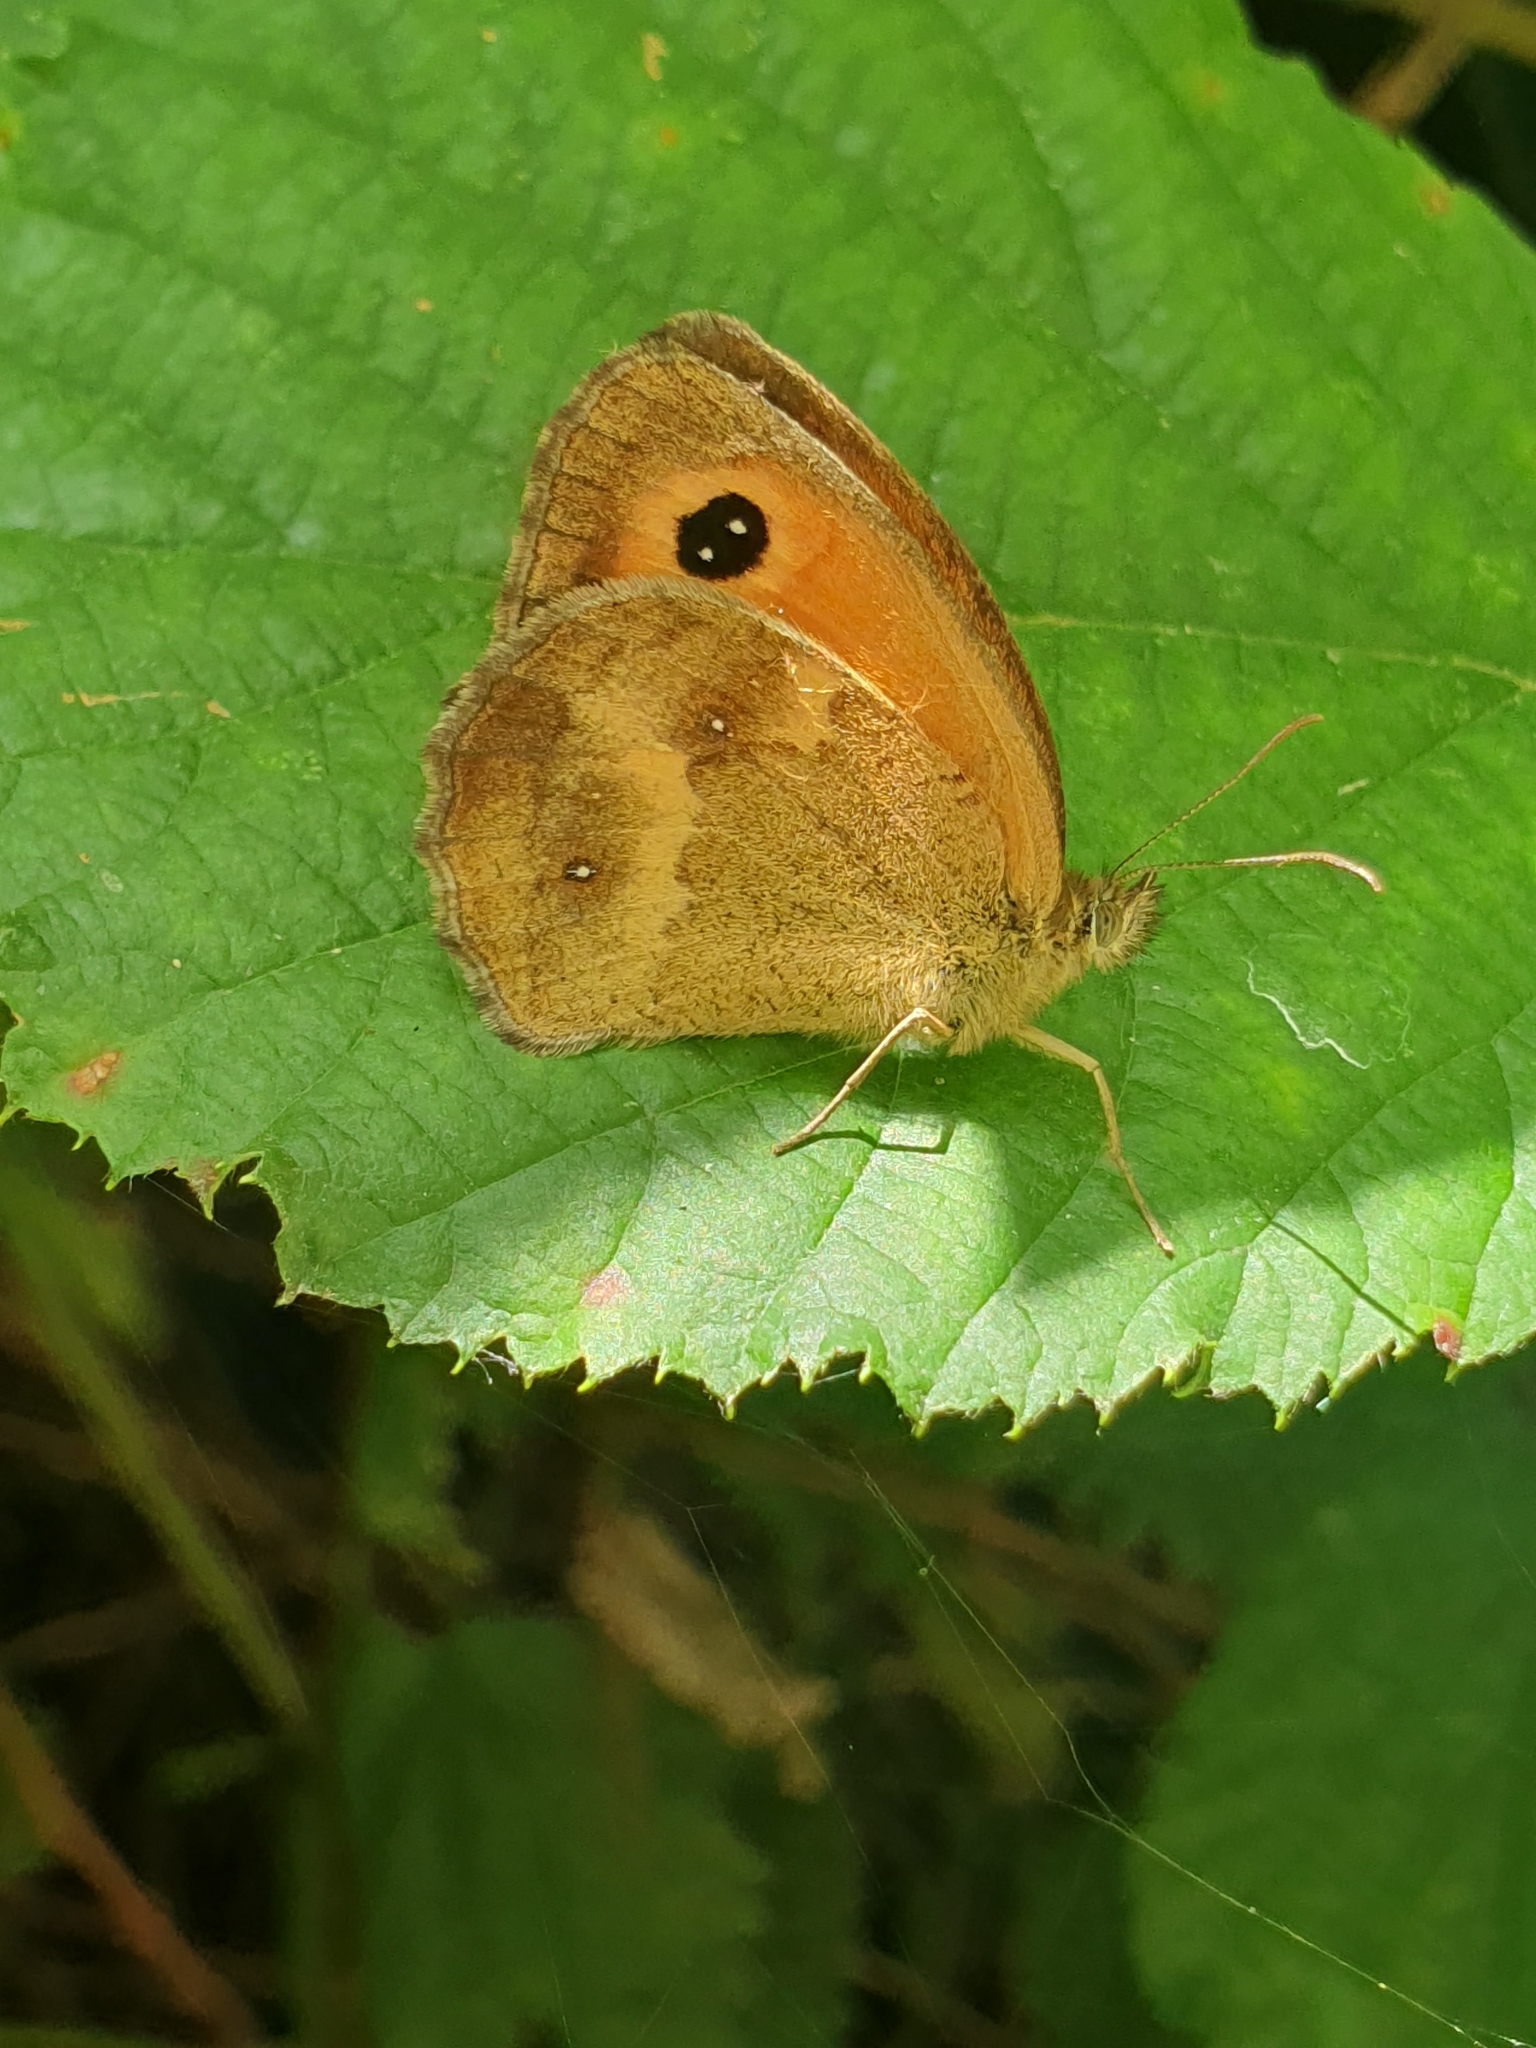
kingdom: Animalia
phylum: Arthropoda
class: Insecta
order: Lepidoptera
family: Nymphalidae
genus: Pyronia
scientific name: Pyronia tithonus
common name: Gatekeeper
